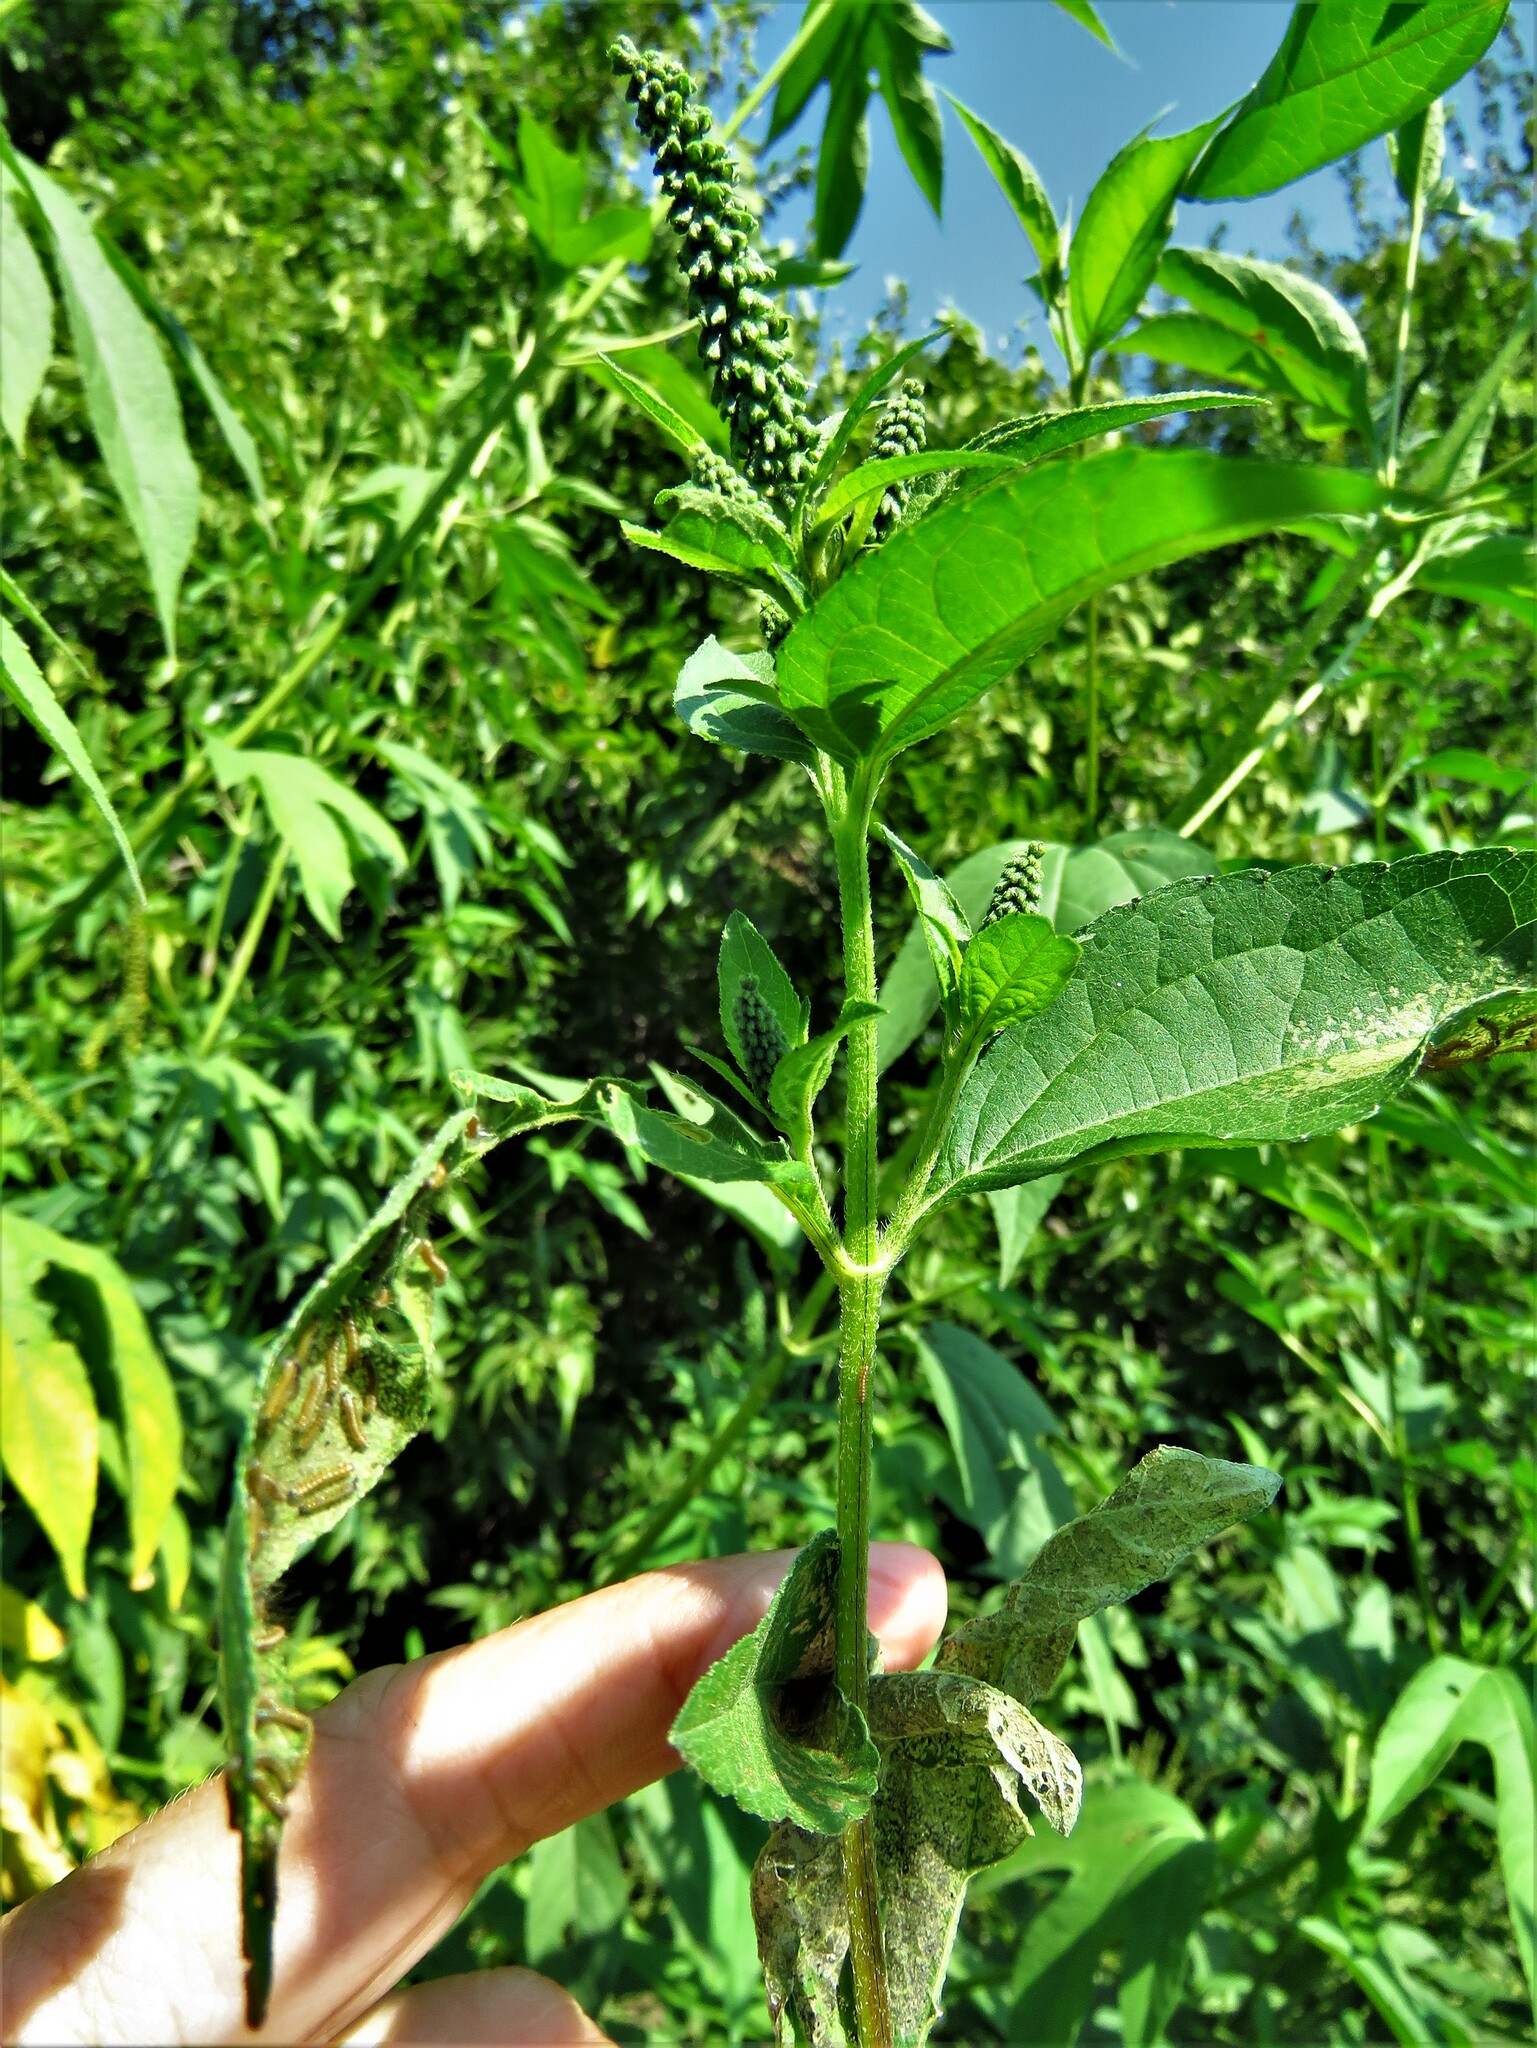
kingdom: Plantae
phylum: Tracheophyta
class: Magnoliopsida
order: Asterales
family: Asteraceae
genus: Ambrosia
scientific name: Ambrosia trifida
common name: Giant ragweed
